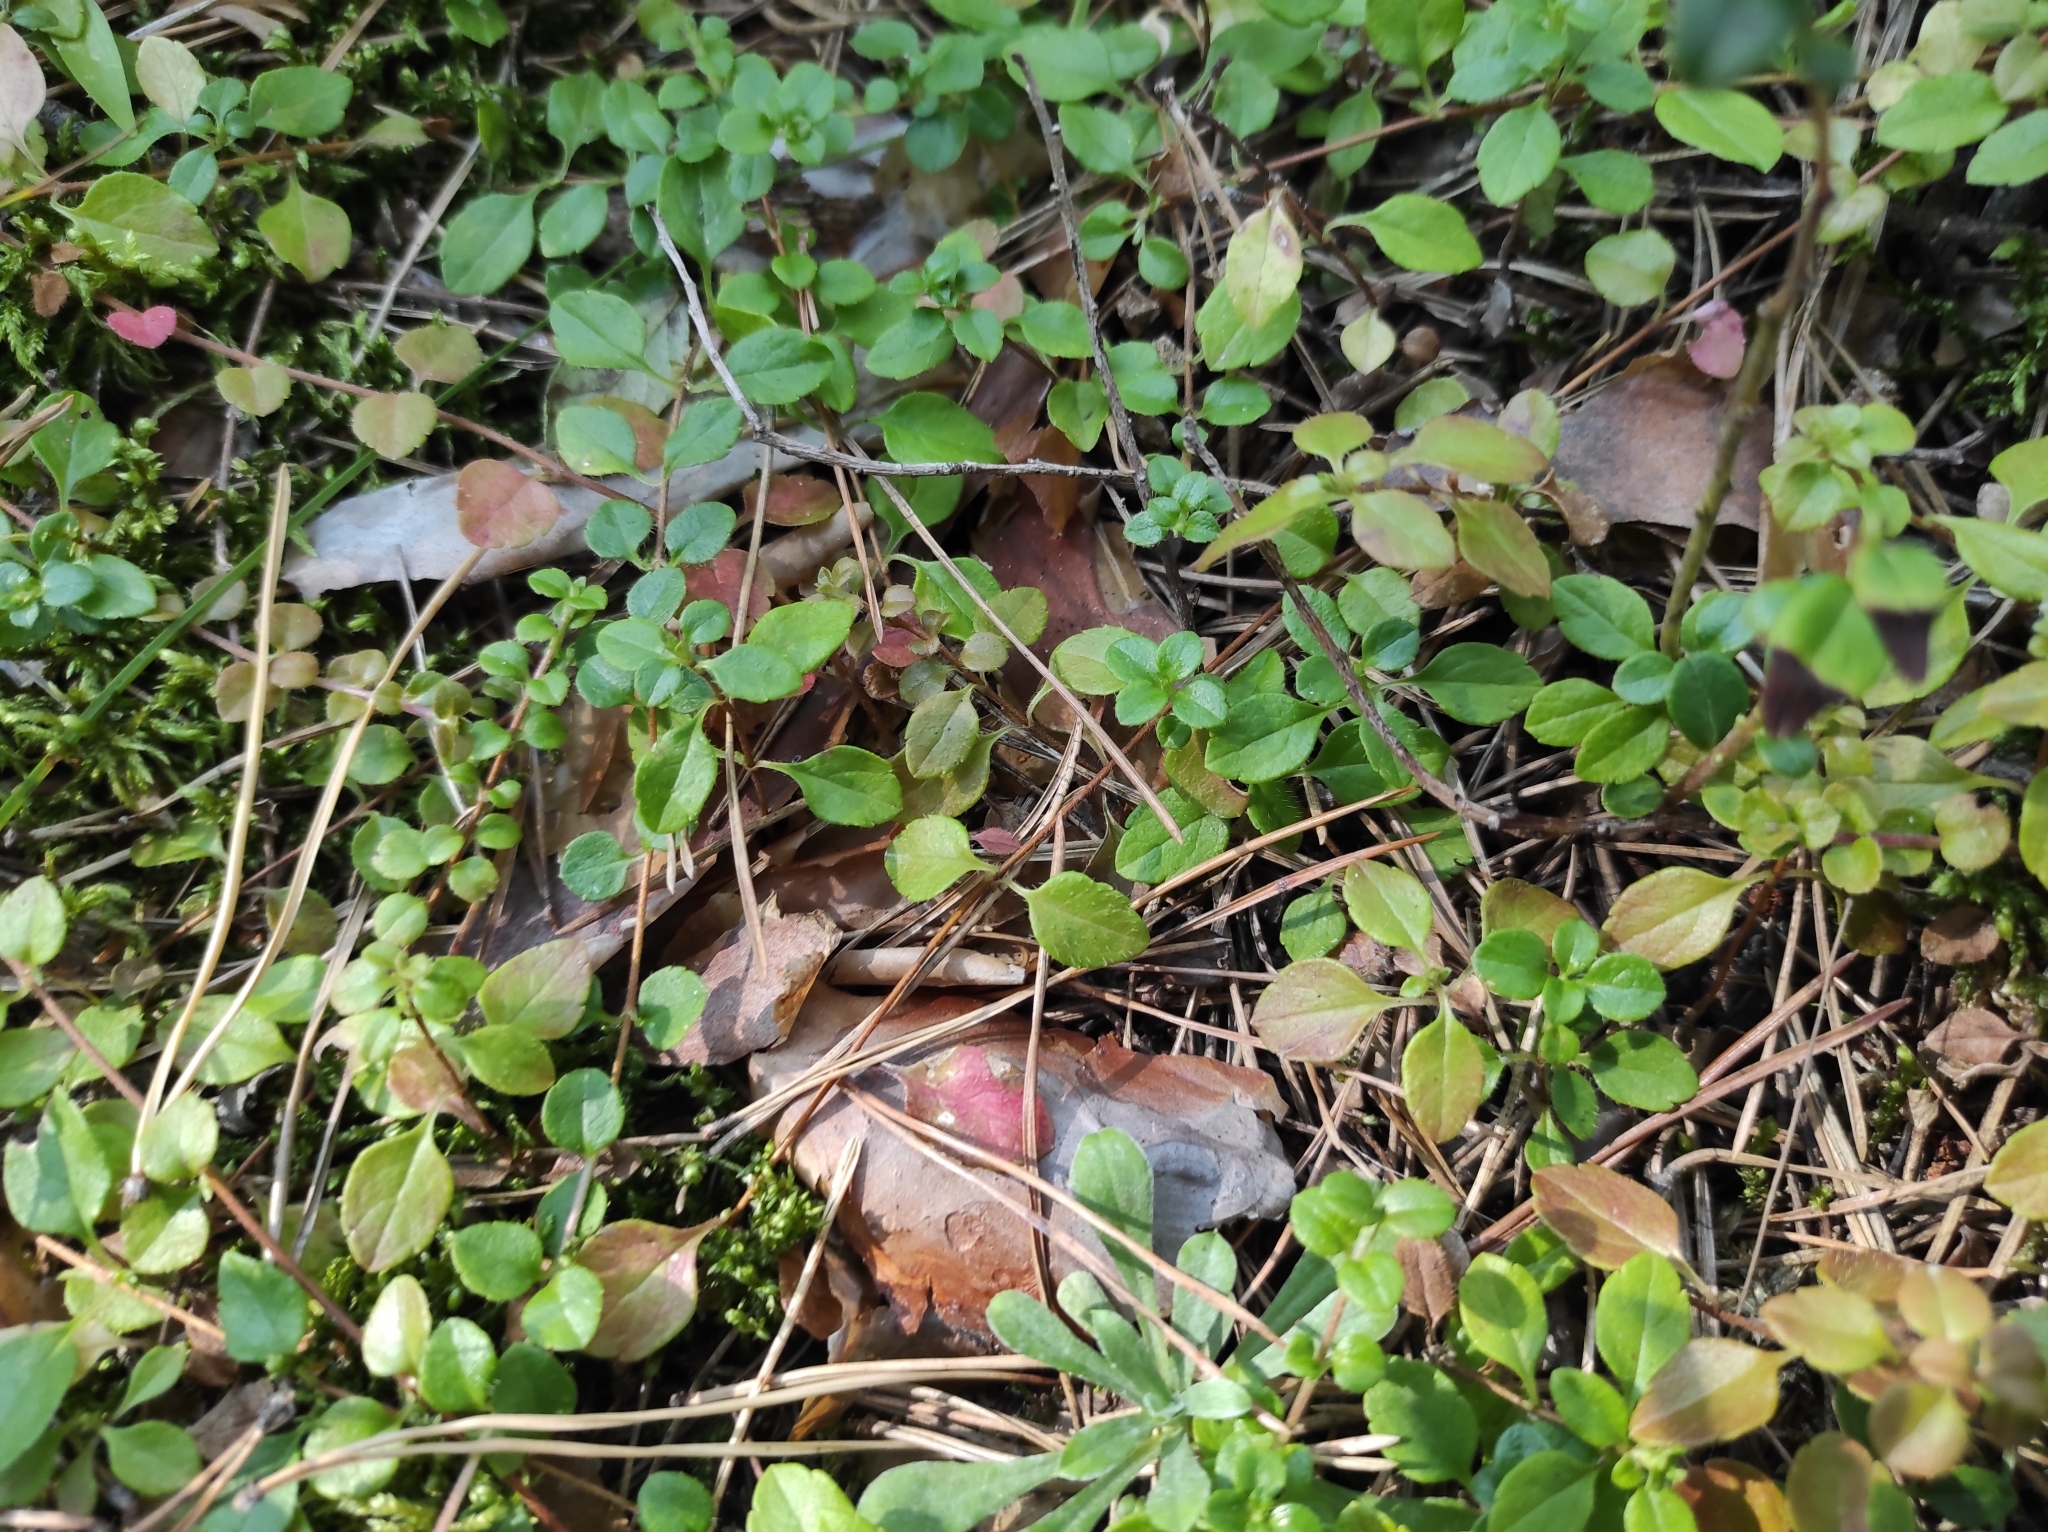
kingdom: Plantae
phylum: Tracheophyta
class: Magnoliopsida
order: Dipsacales
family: Caprifoliaceae
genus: Linnaea
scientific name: Linnaea borealis
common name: Twinflower
